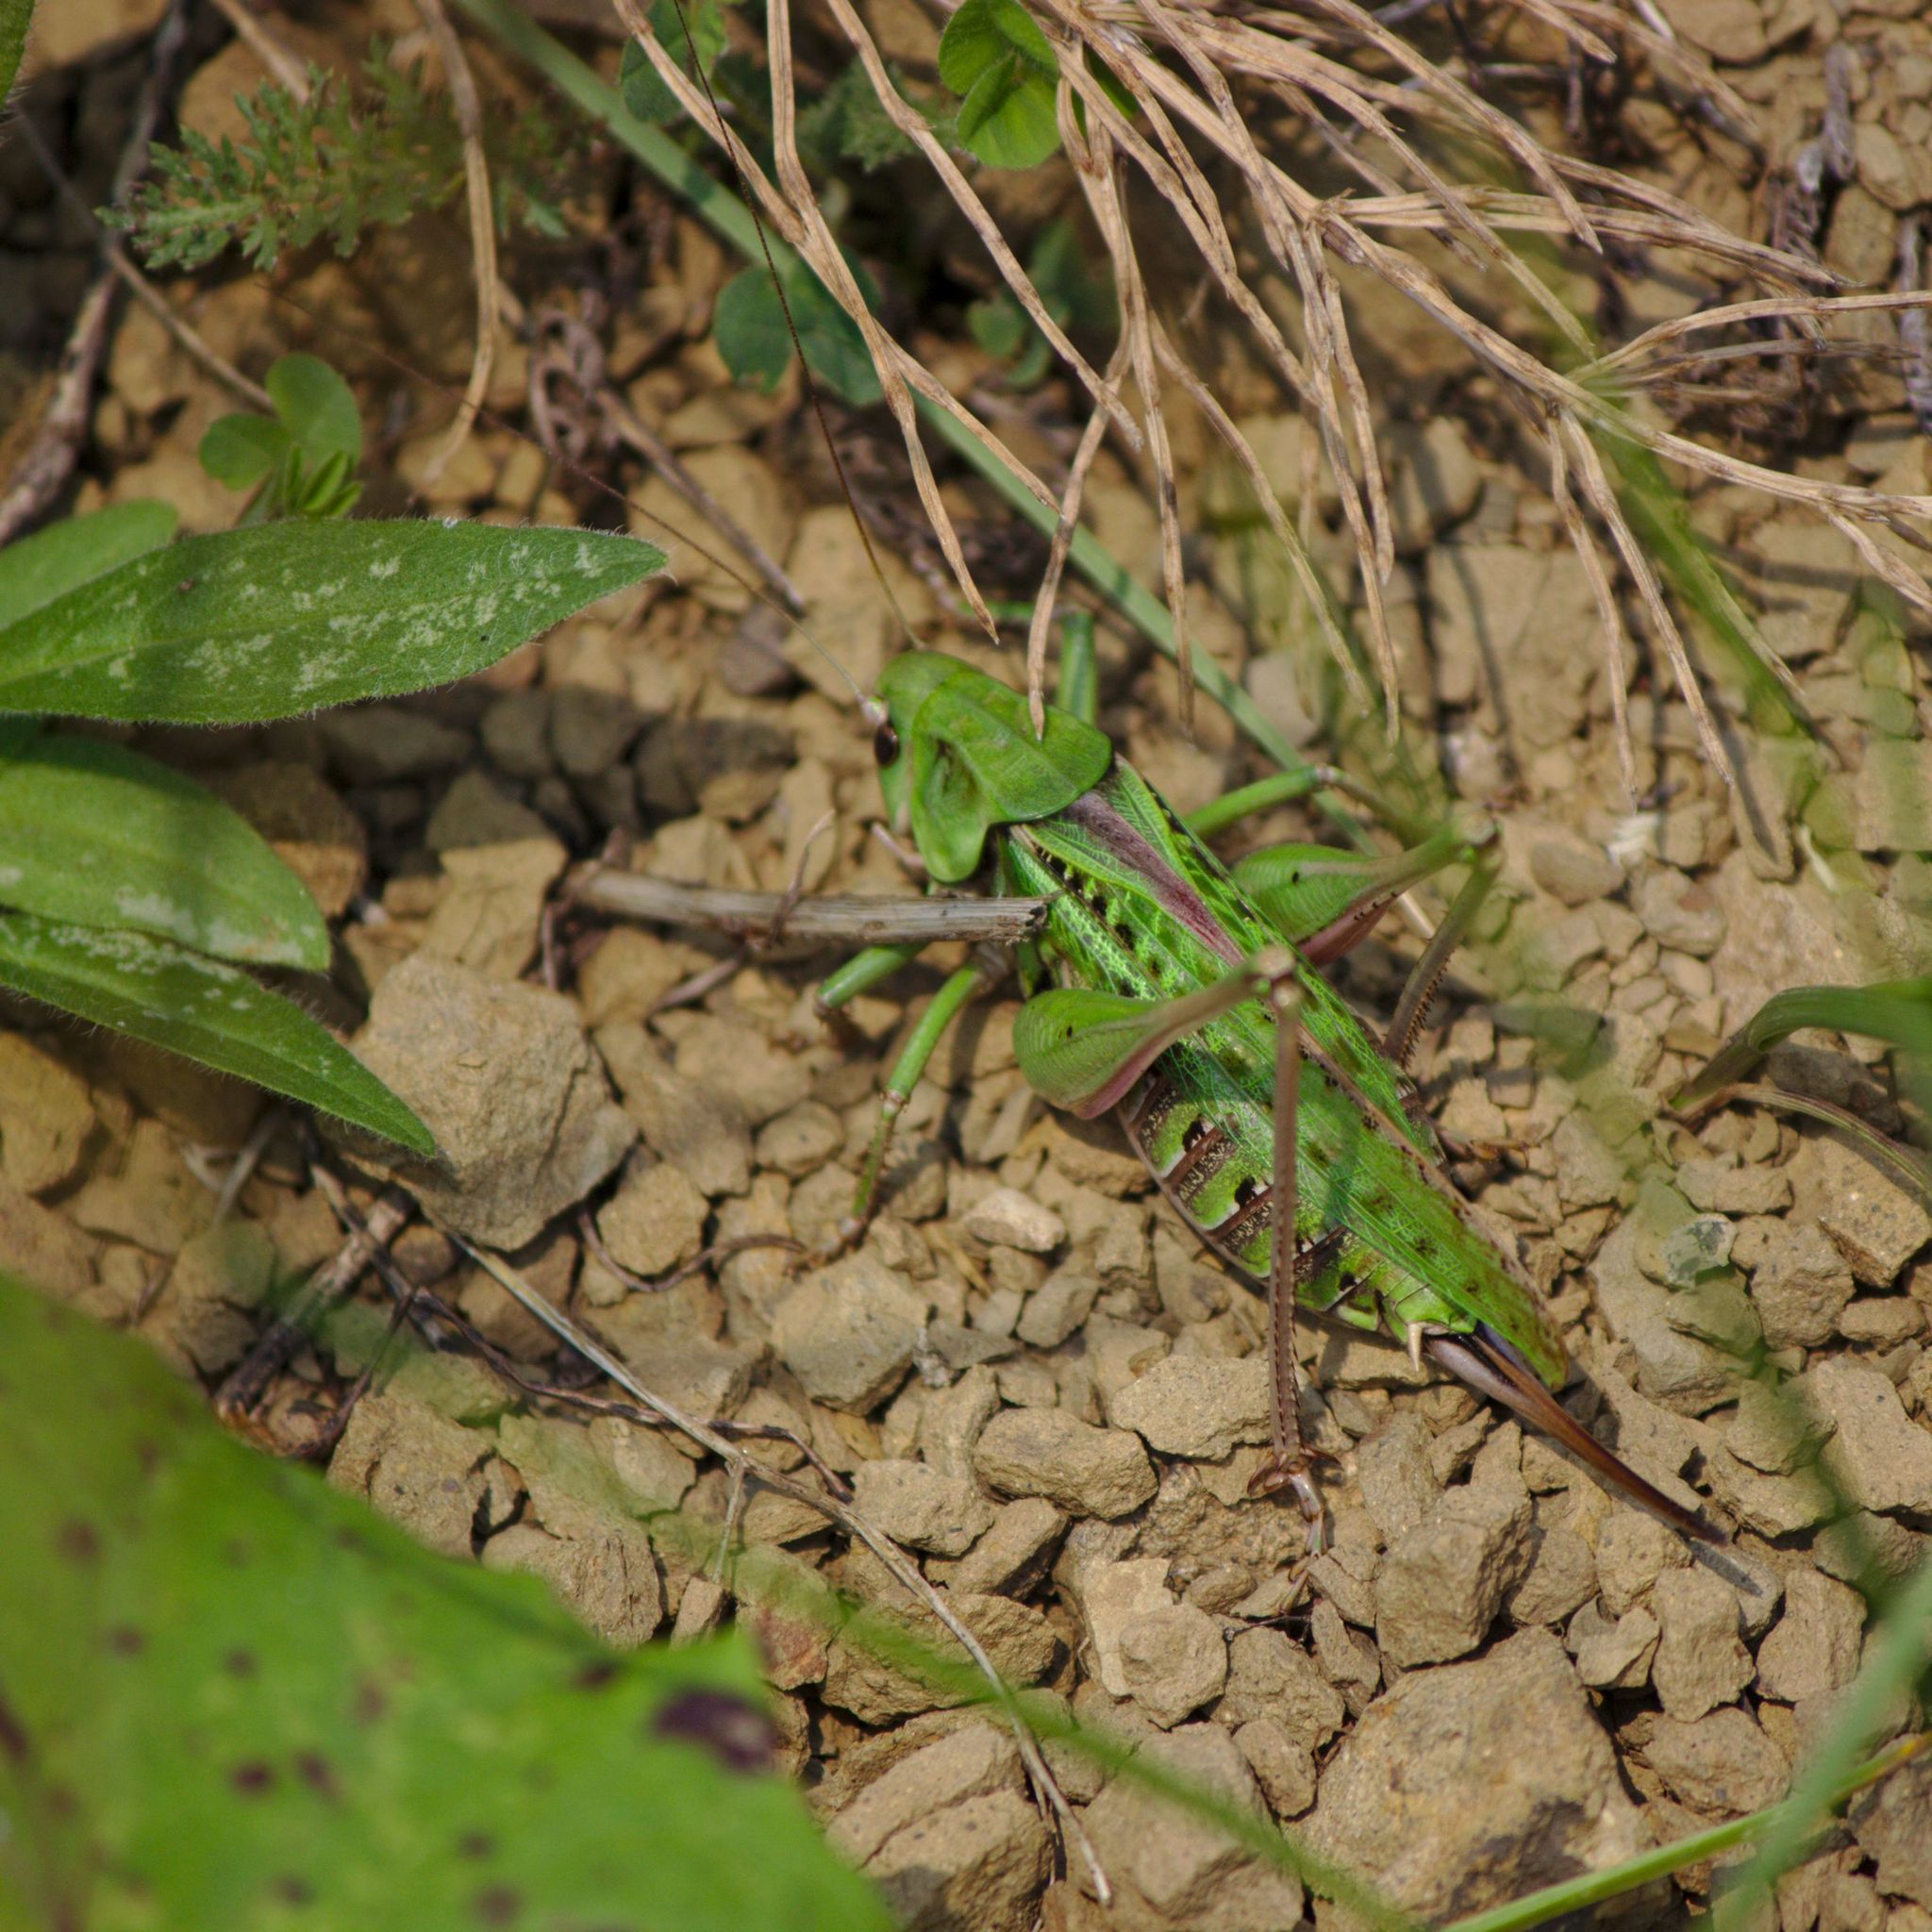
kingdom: Animalia
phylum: Arthropoda
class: Insecta
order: Orthoptera
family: Tettigoniidae
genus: Decticus
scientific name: Decticus verrucivorus
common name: Wart-biter
